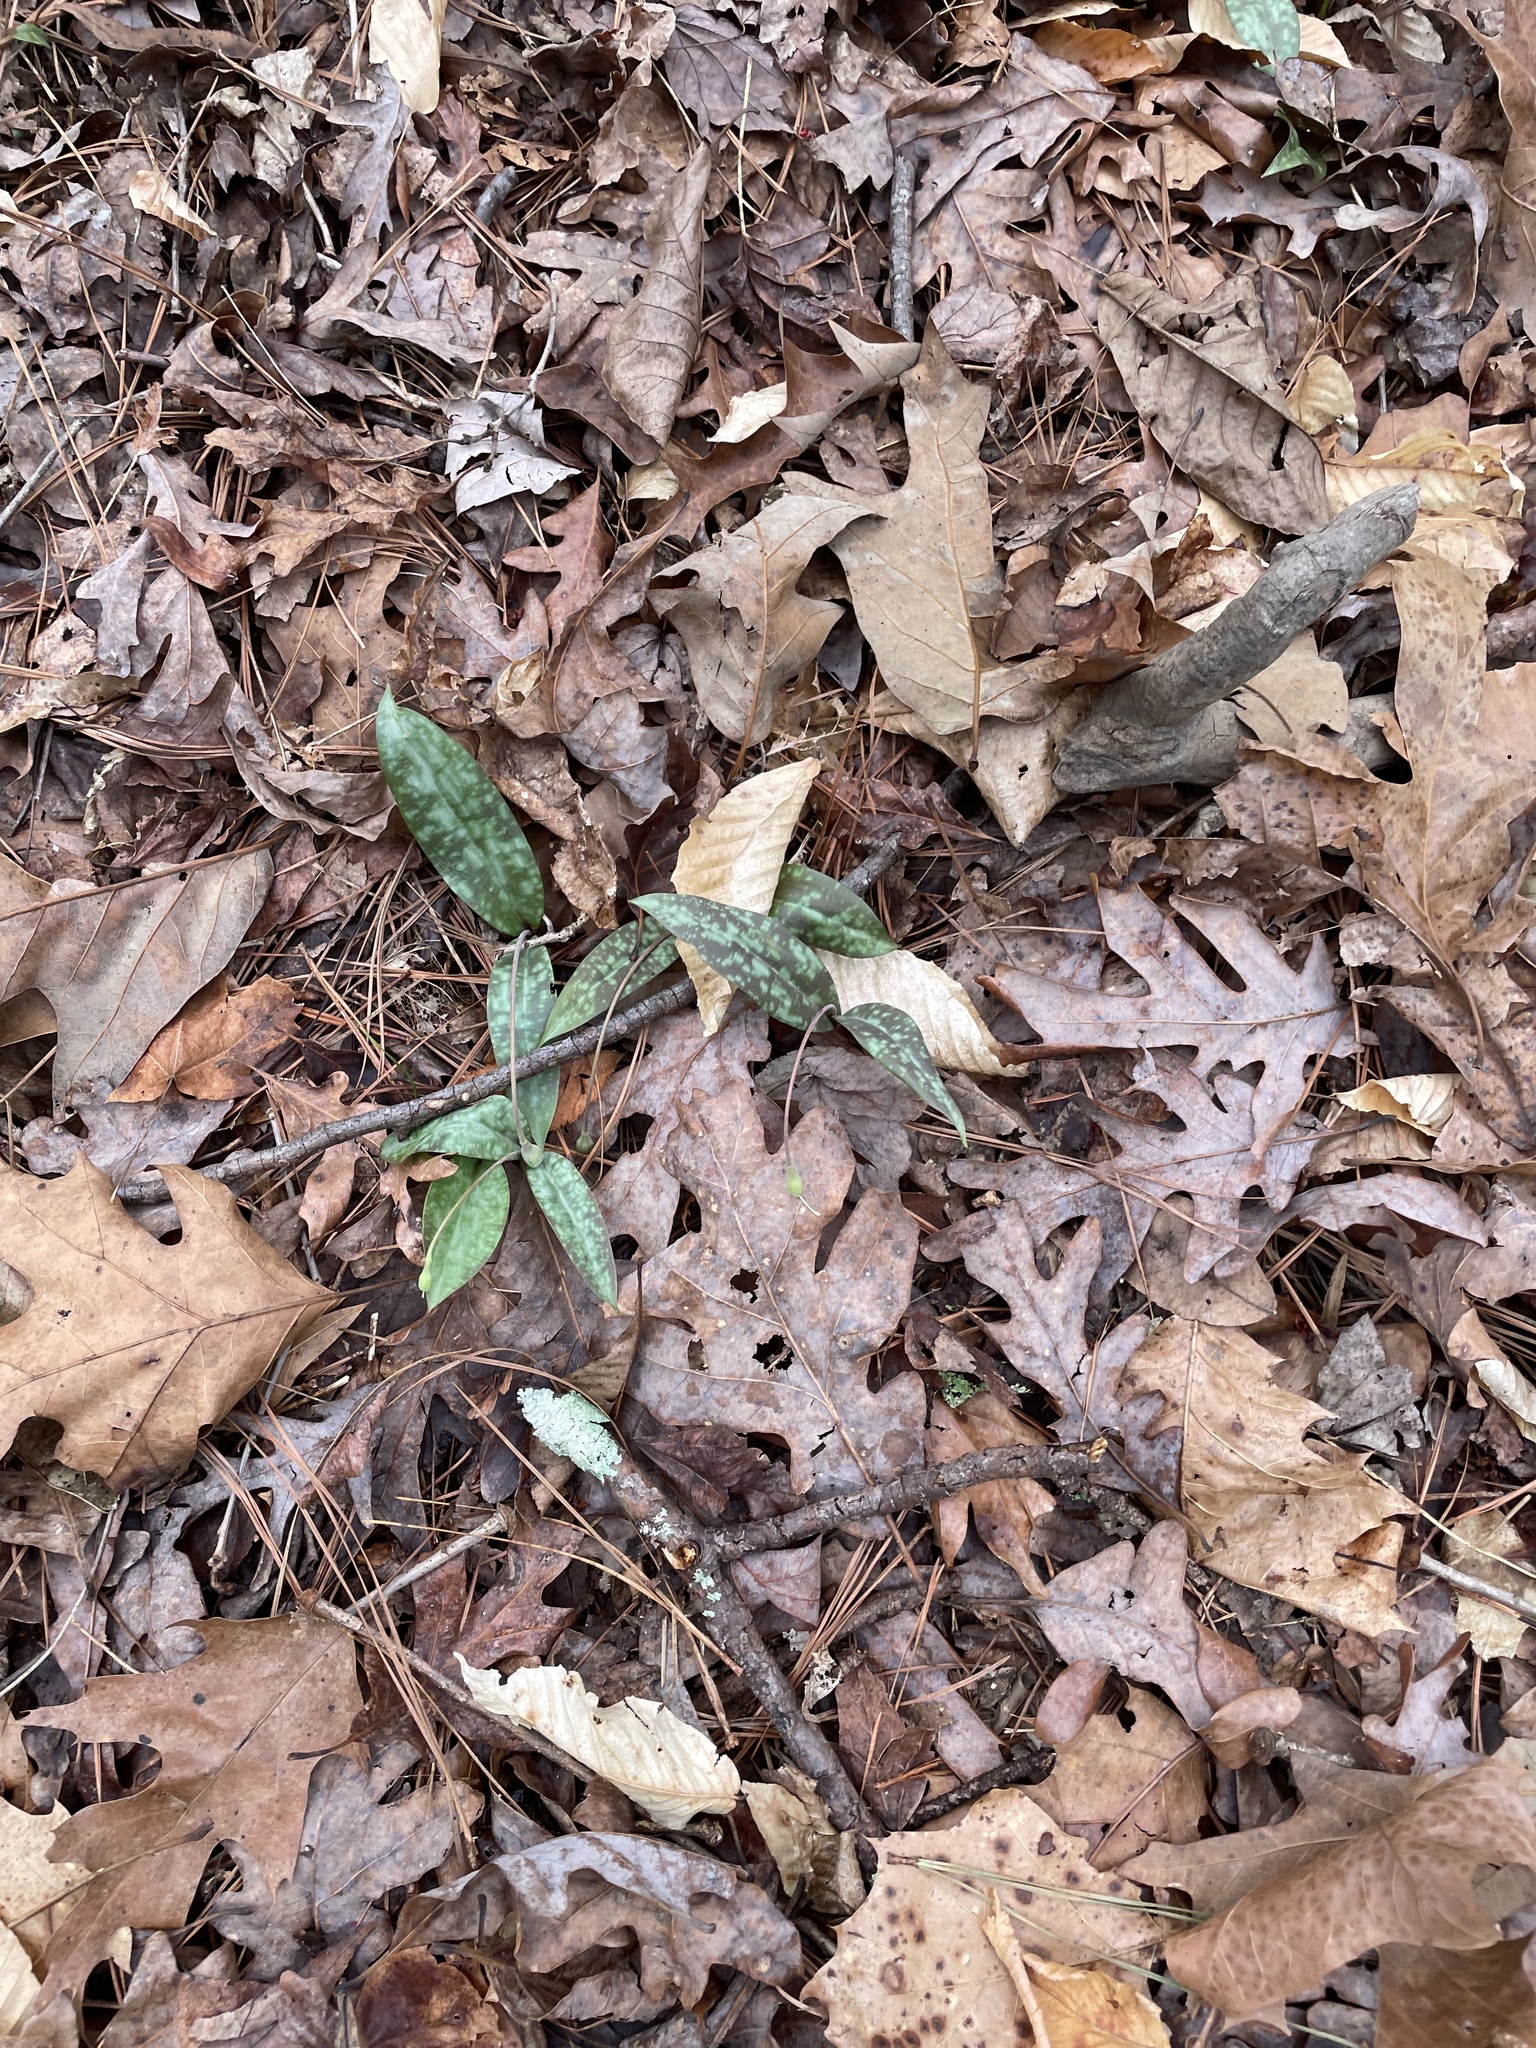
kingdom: Plantae
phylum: Tracheophyta
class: Liliopsida
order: Liliales
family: Liliaceae
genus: Erythronium
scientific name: Erythronium umbilicatum
